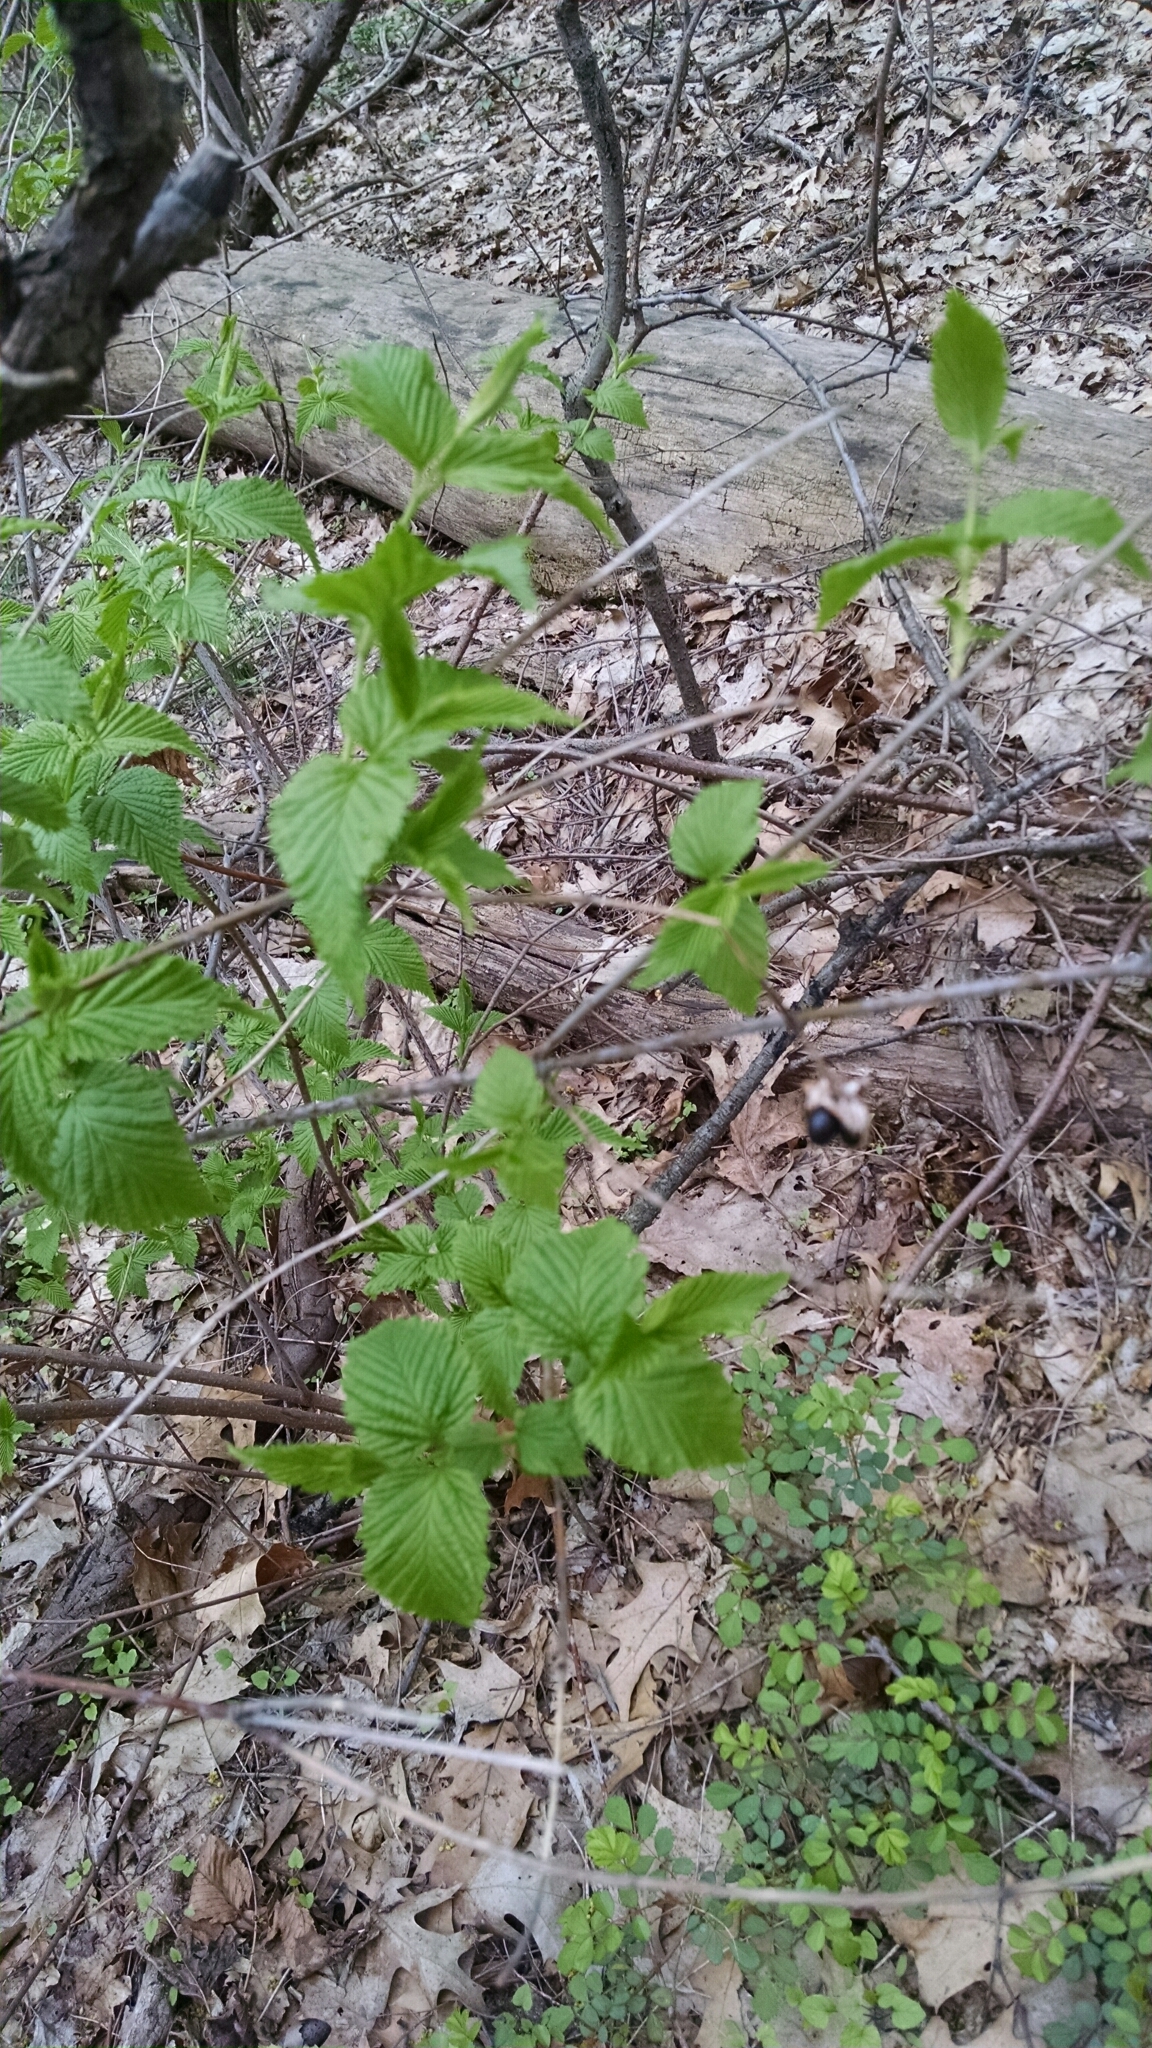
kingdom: Plantae
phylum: Tracheophyta
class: Magnoliopsida
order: Rosales
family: Rosaceae
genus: Rhodotypos
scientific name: Rhodotypos scandens
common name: Jetbead
